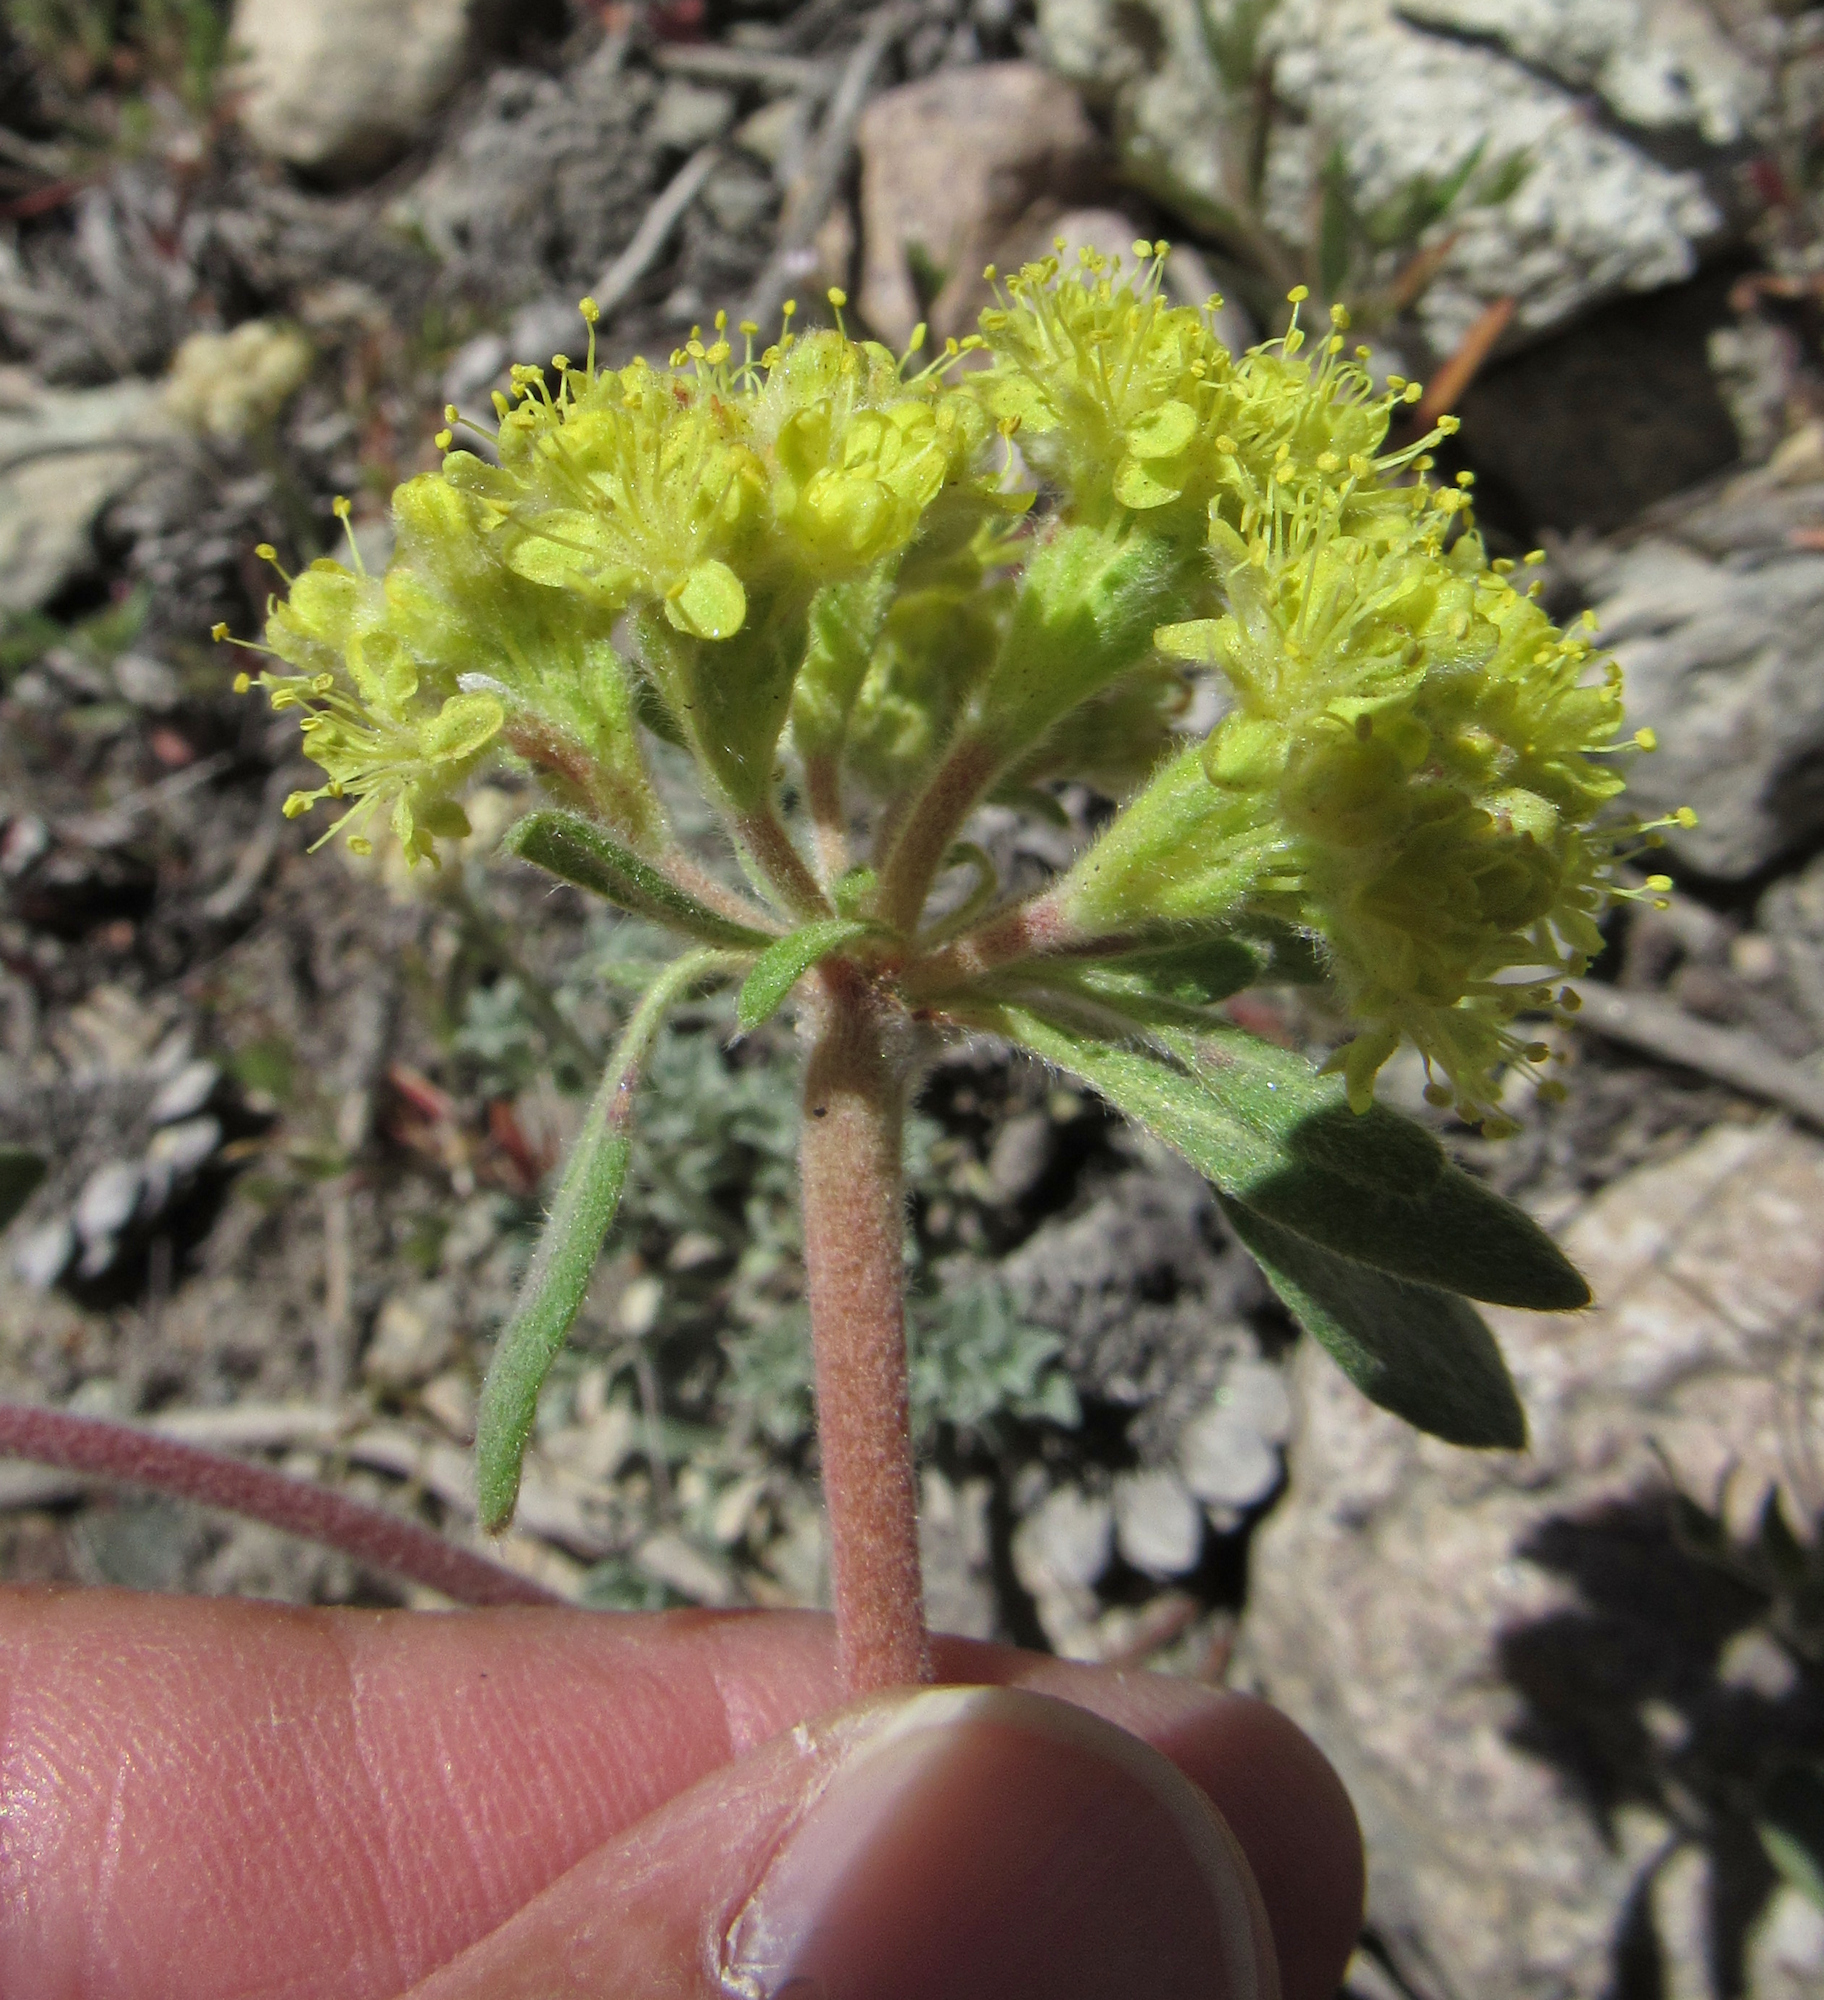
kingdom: Plantae
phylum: Tracheophyta
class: Magnoliopsida
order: Caryophyllales
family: Polygonaceae
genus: Eriogonum
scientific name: Eriogonum flavum
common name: Alpine golden wild buckwheat
